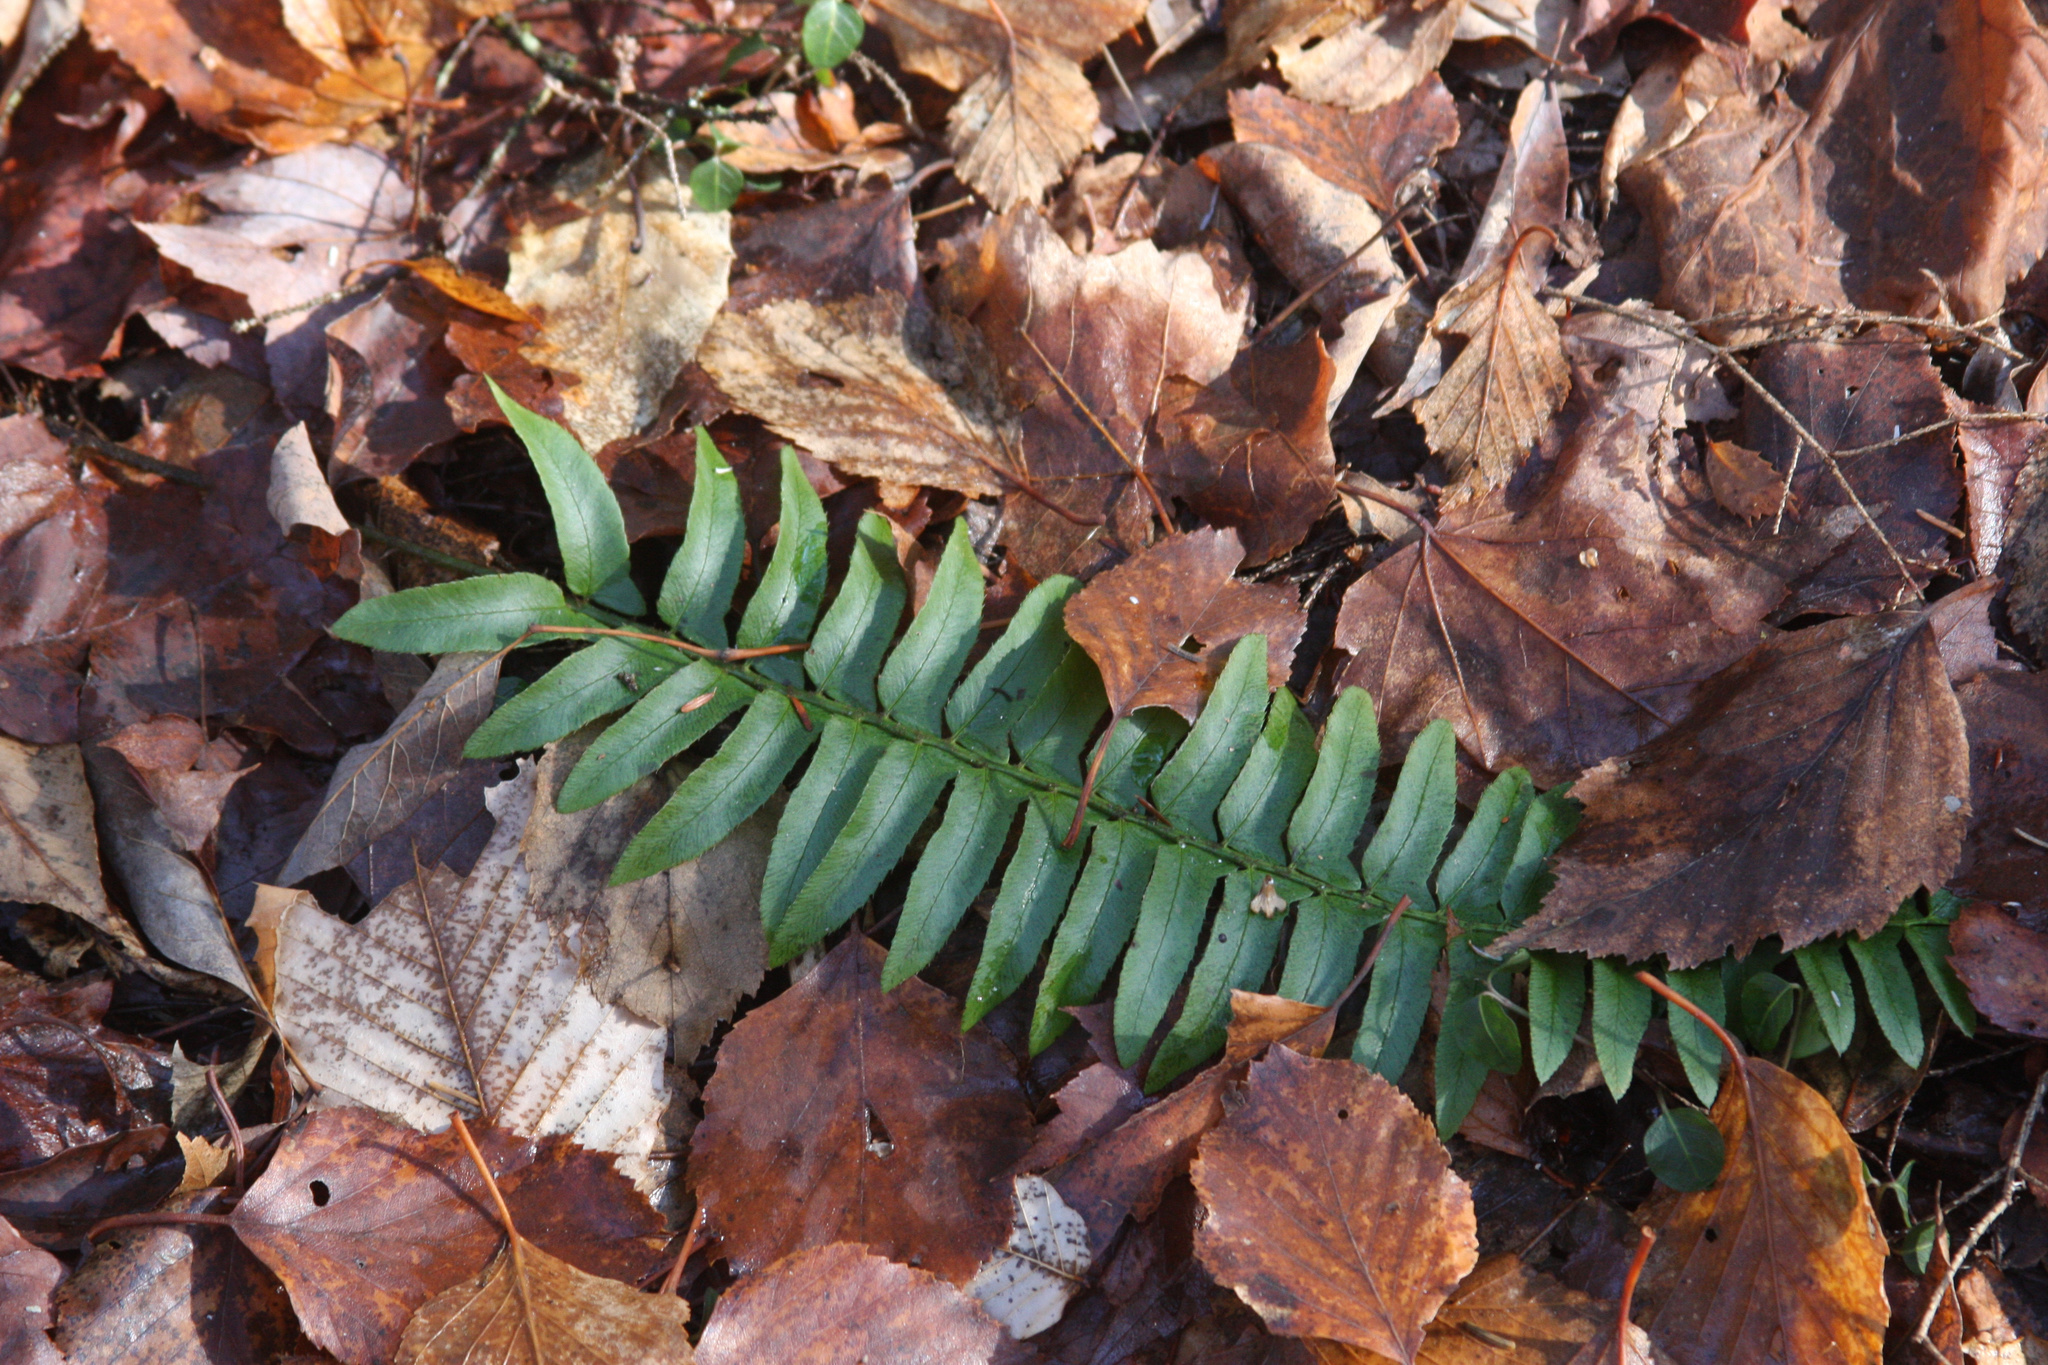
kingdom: Plantae
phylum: Tracheophyta
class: Polypodiopsida
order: Polypodiales
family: Dryopteridaceae
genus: Polystichum
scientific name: Polystichum acrostichoides
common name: Christmas fern
